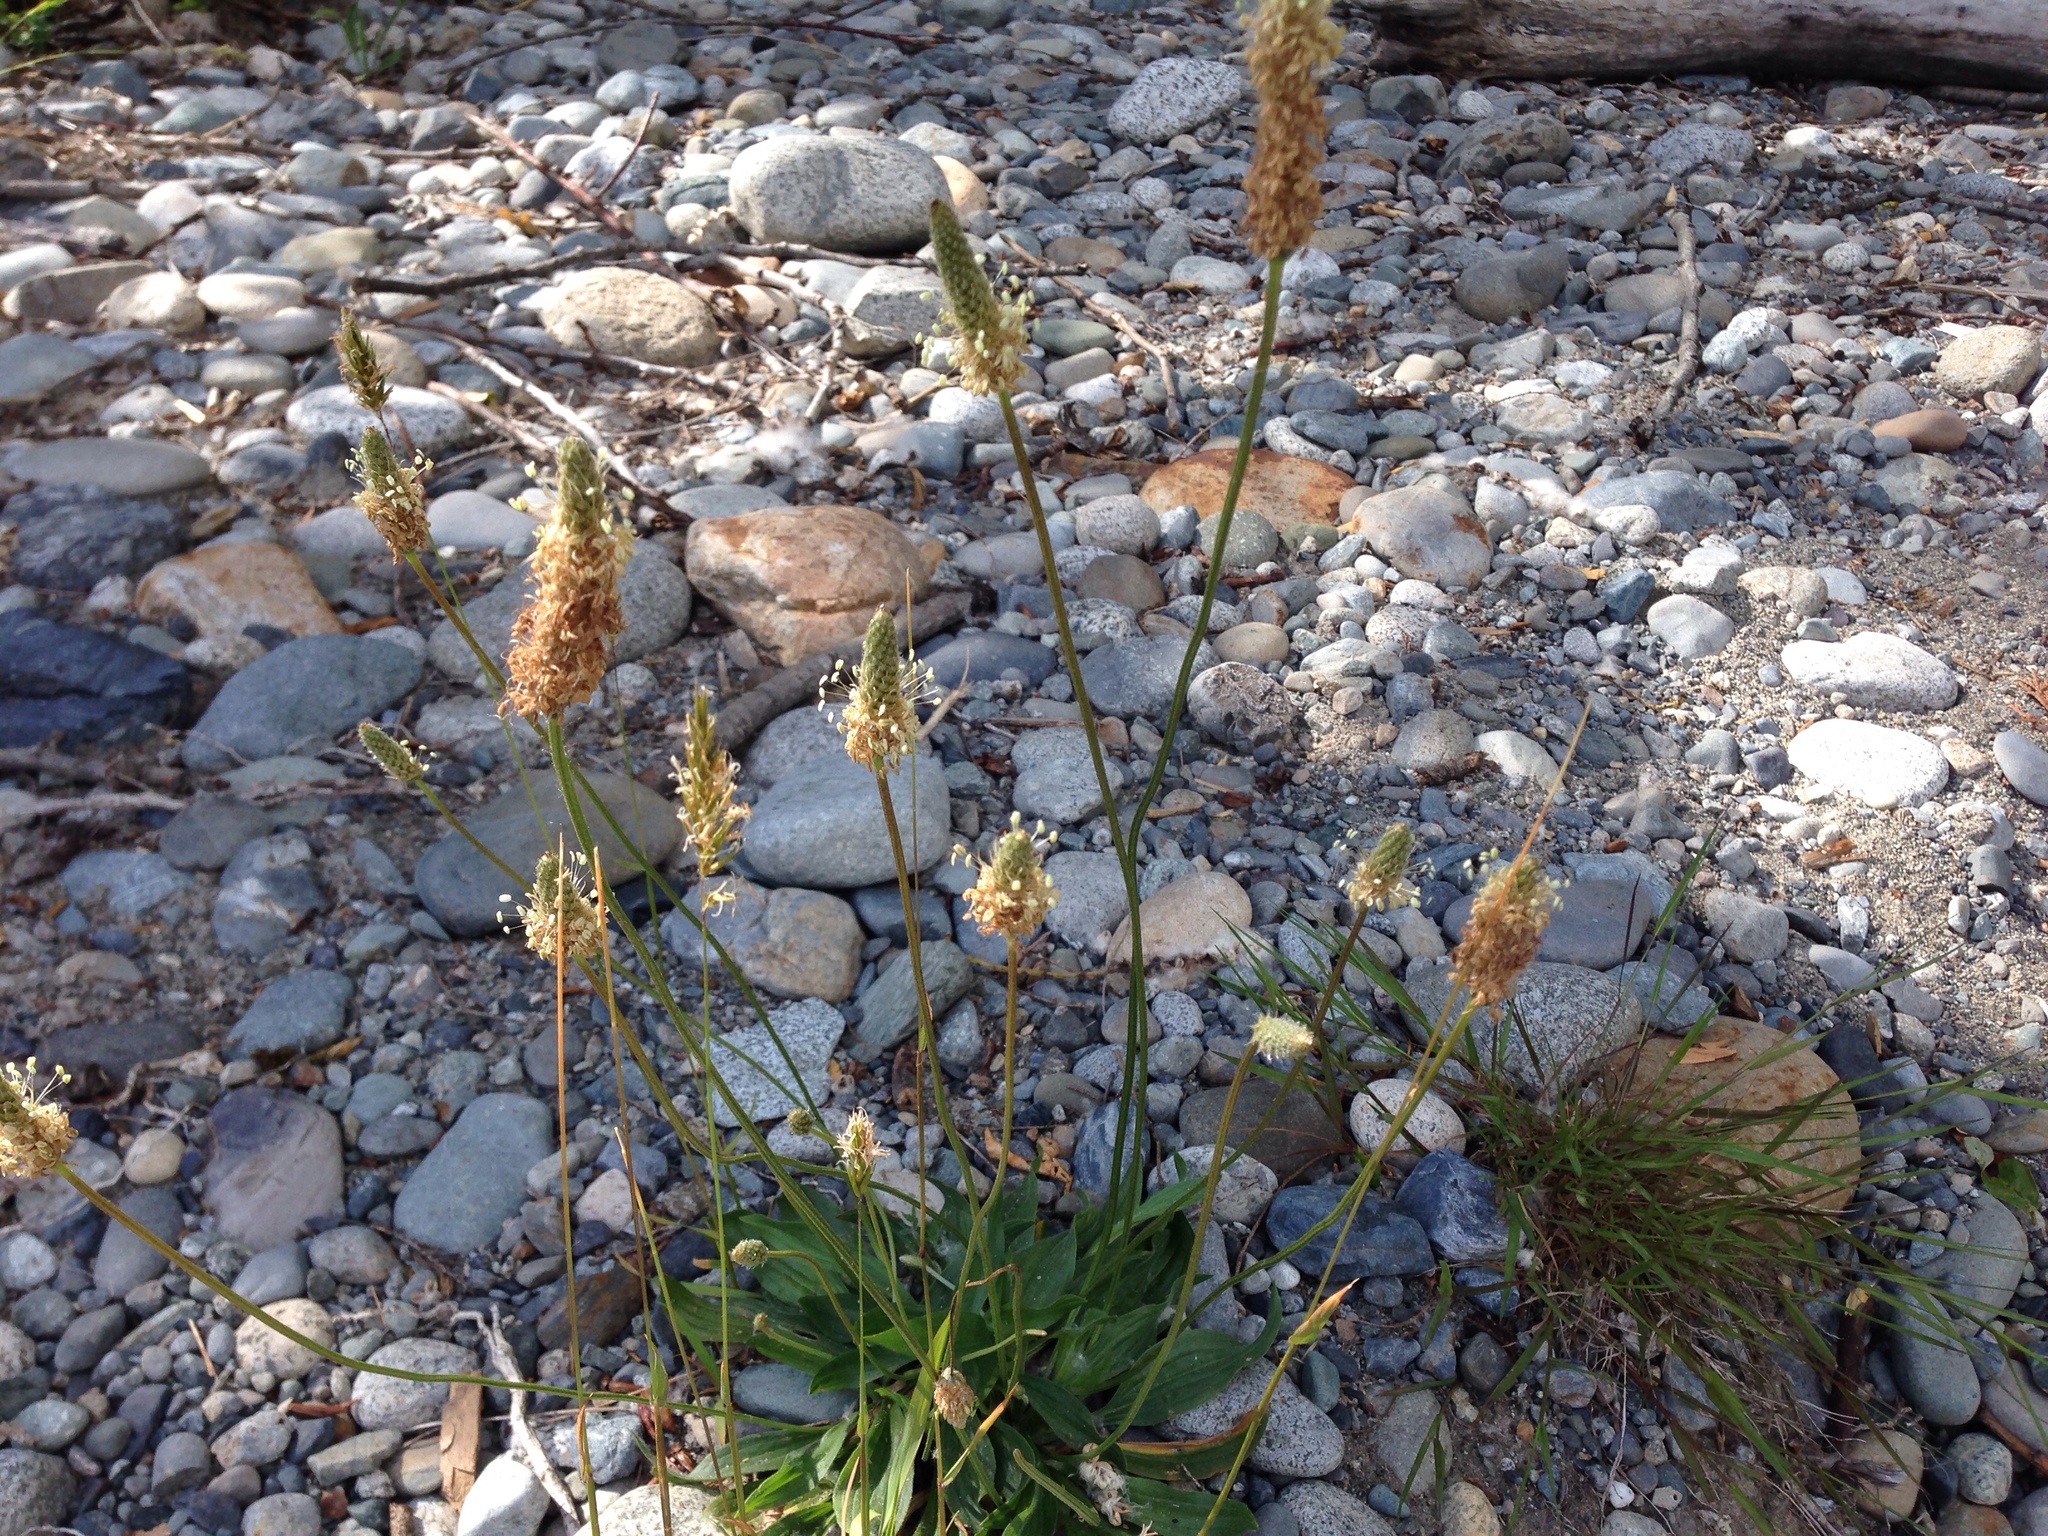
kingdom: Plantae
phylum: Tracheophyta
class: Magnoliopsida
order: Lamiales
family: Plantaginaceae
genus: Plantago
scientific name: Plantago lanceolata
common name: Ribwort plantain
